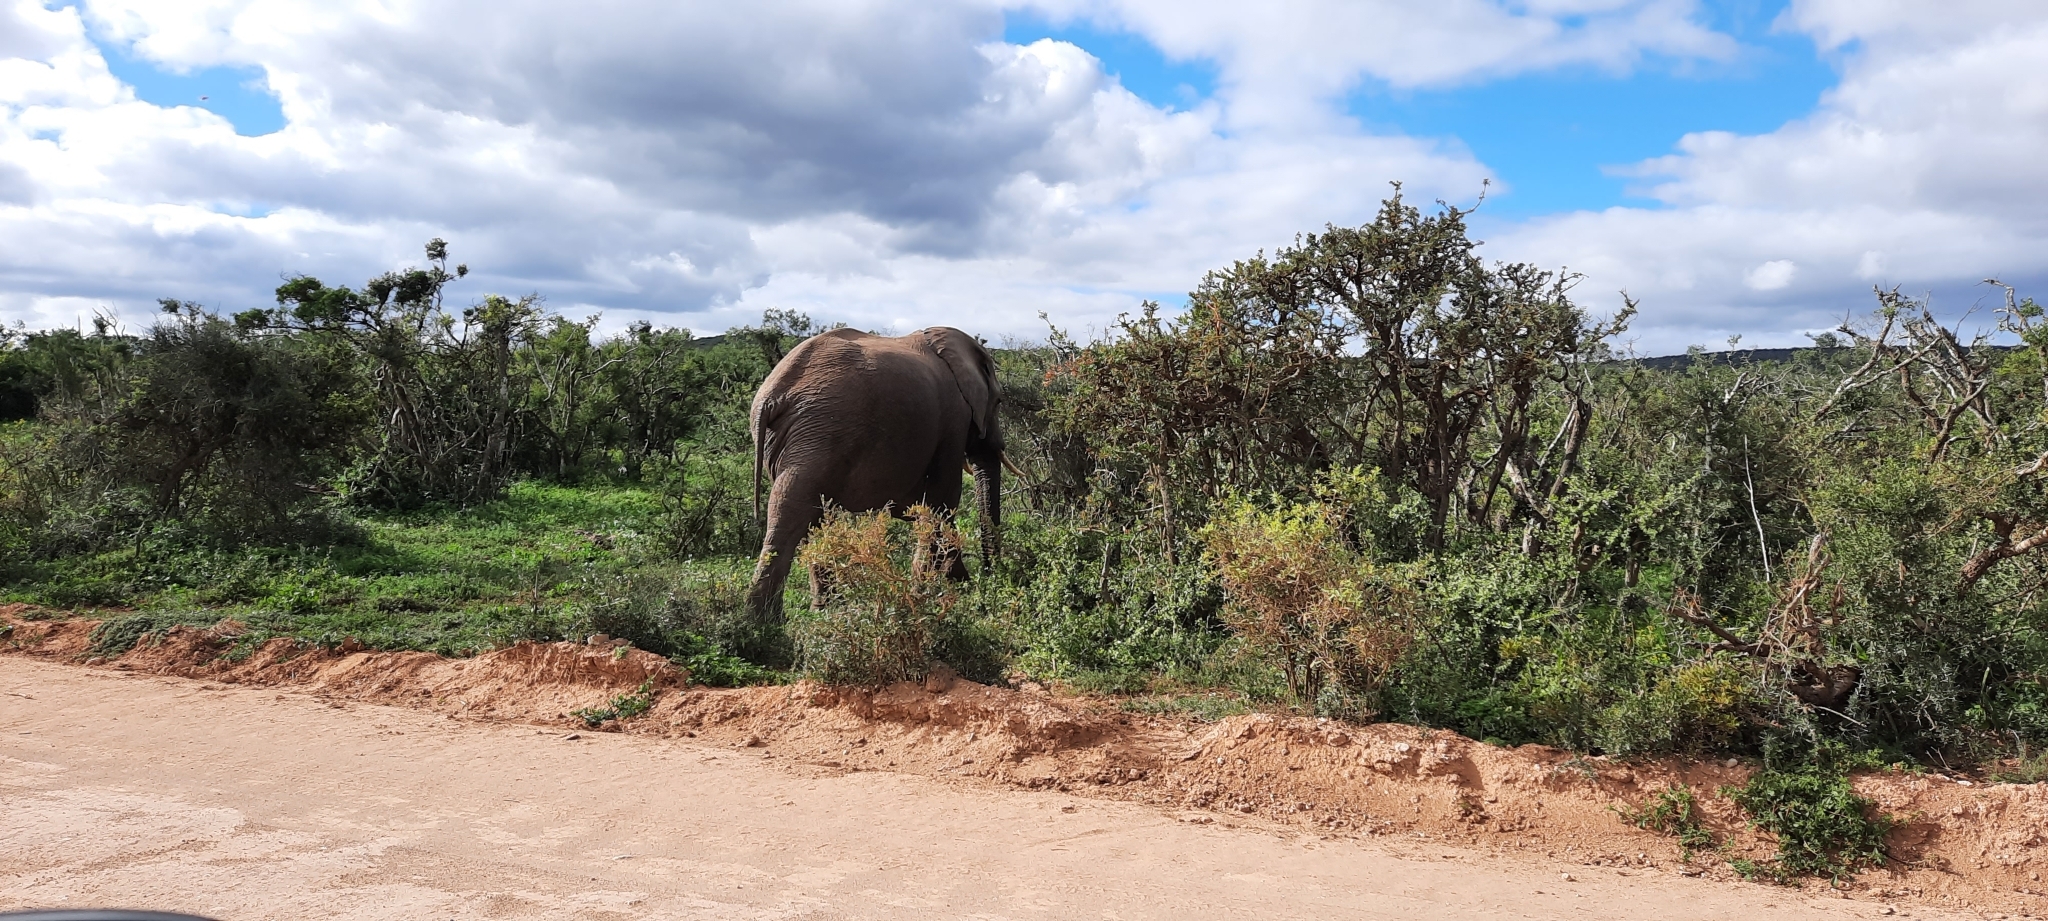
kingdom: Animalia
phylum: Chordata
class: Mammalia
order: Proboscidea
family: Elephantidae
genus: Loxodonta
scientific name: Loxodonta africana
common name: African elephant
